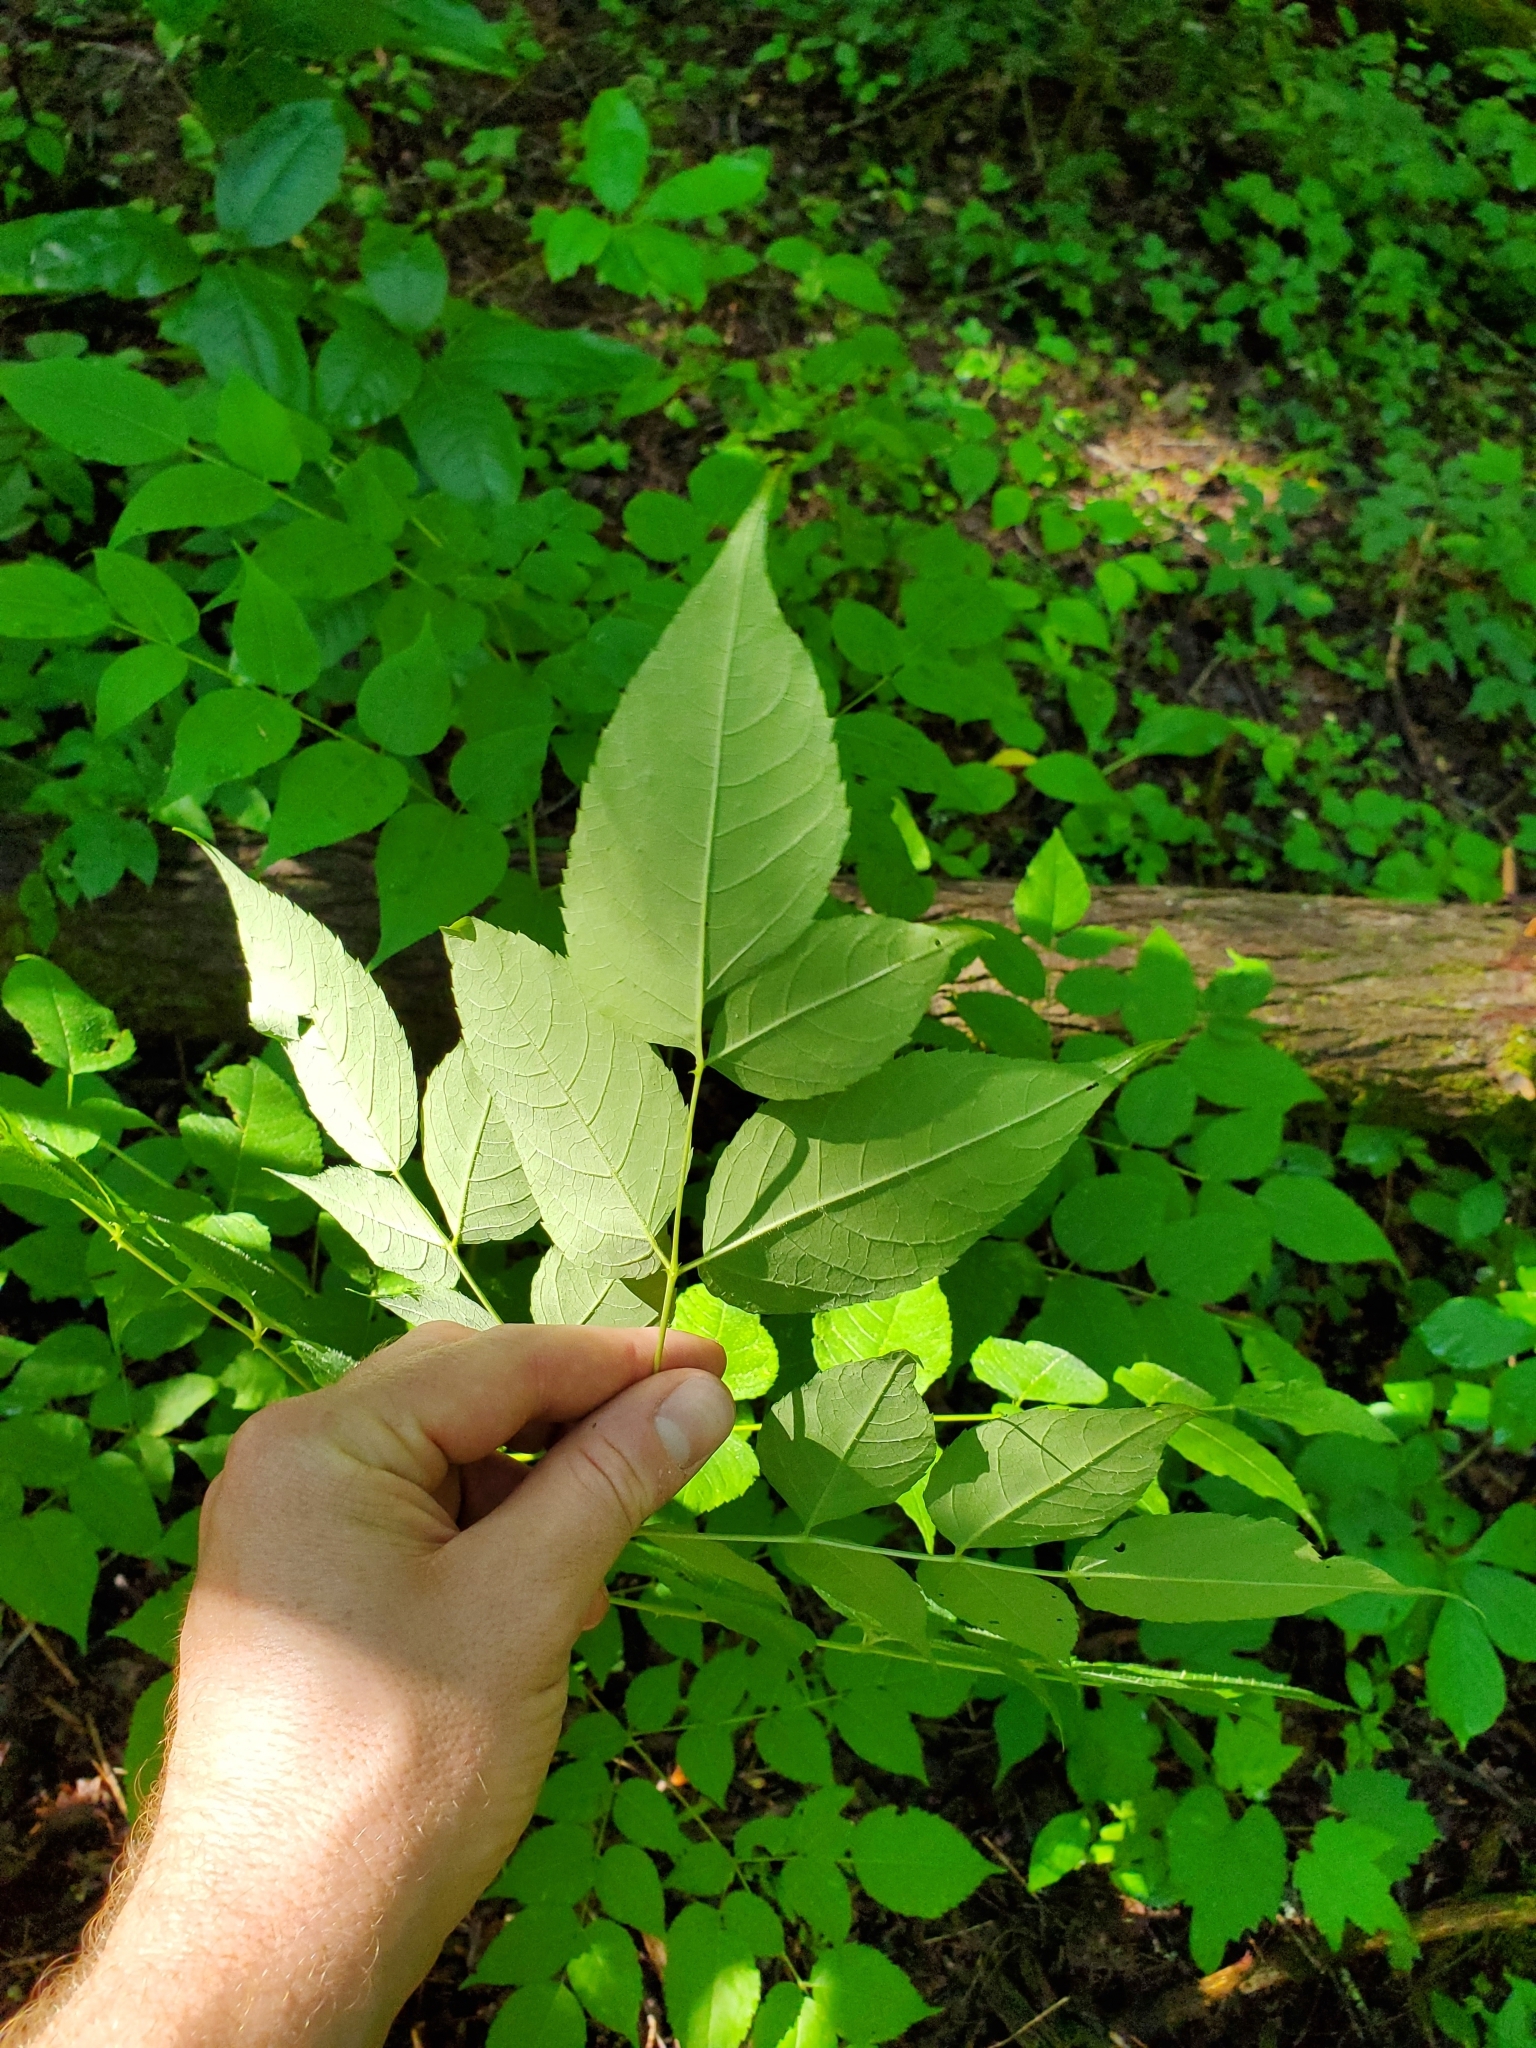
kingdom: Plantae
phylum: Tracheophyta
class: Magnoliopsida
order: Apiales
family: Araliaceae
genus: Aralia
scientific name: Aralia spinosa
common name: Hercules'-club
